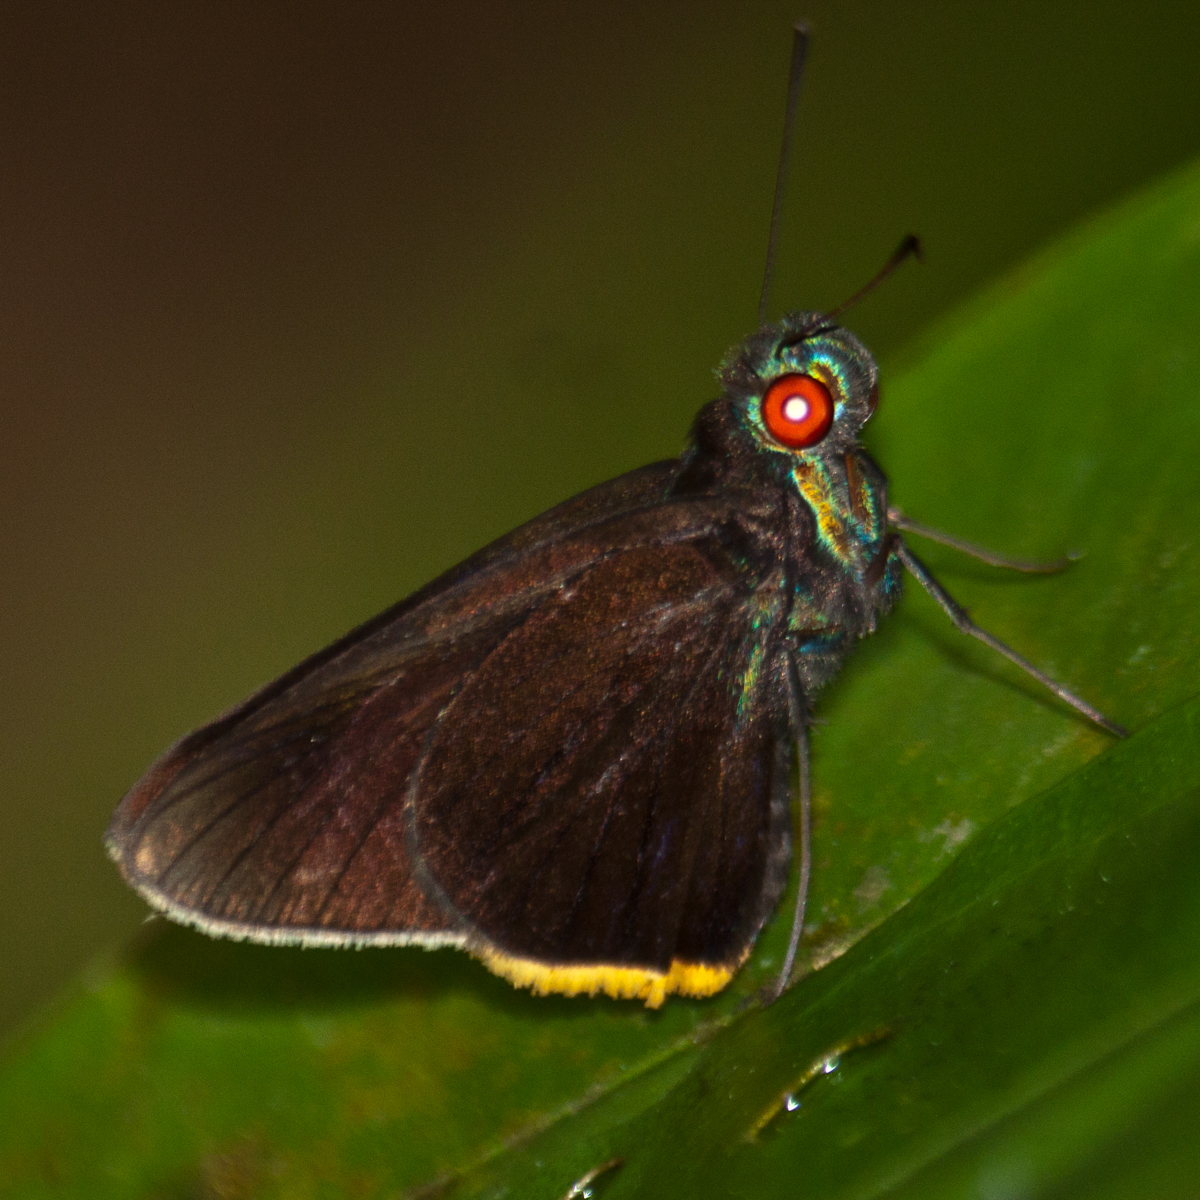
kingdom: Animalia
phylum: Arthropoda
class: Insecta
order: Lepidoptera
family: Hesperiidae
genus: Matapa
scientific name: Matapa sasivarna
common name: Black-veined redeye
